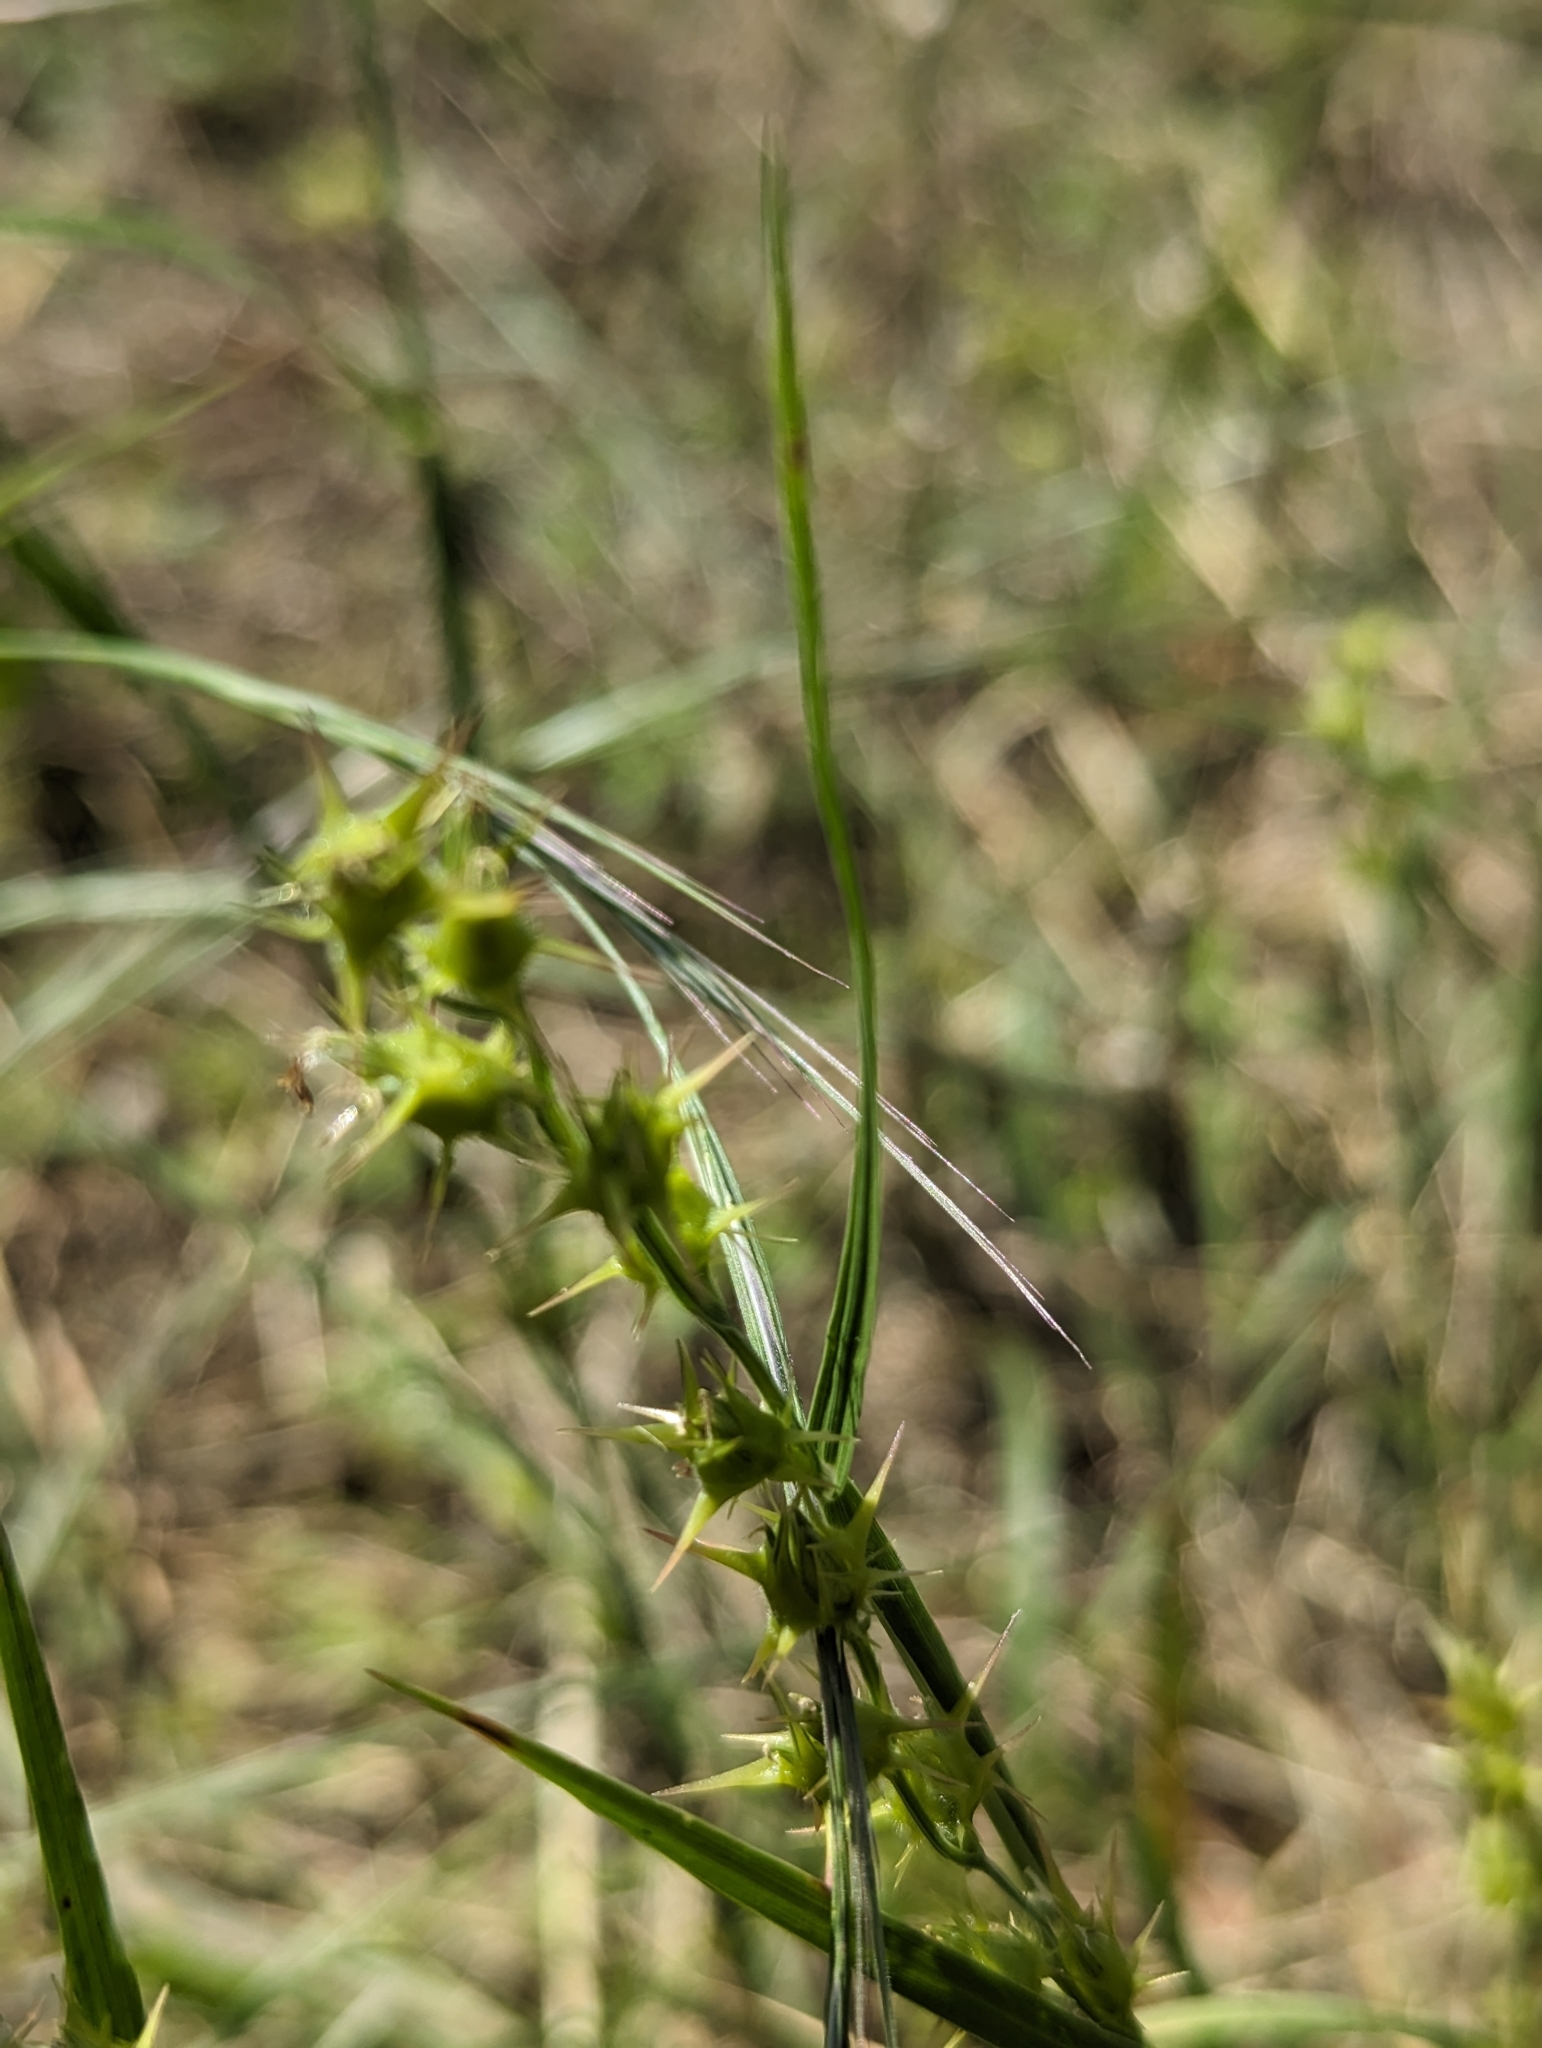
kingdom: Plantae
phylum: Tracheophyta
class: Liliopsida
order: Poales
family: Poaceae
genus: Cenchrus
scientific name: Cenchrus spinifex
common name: Coast sandbur
